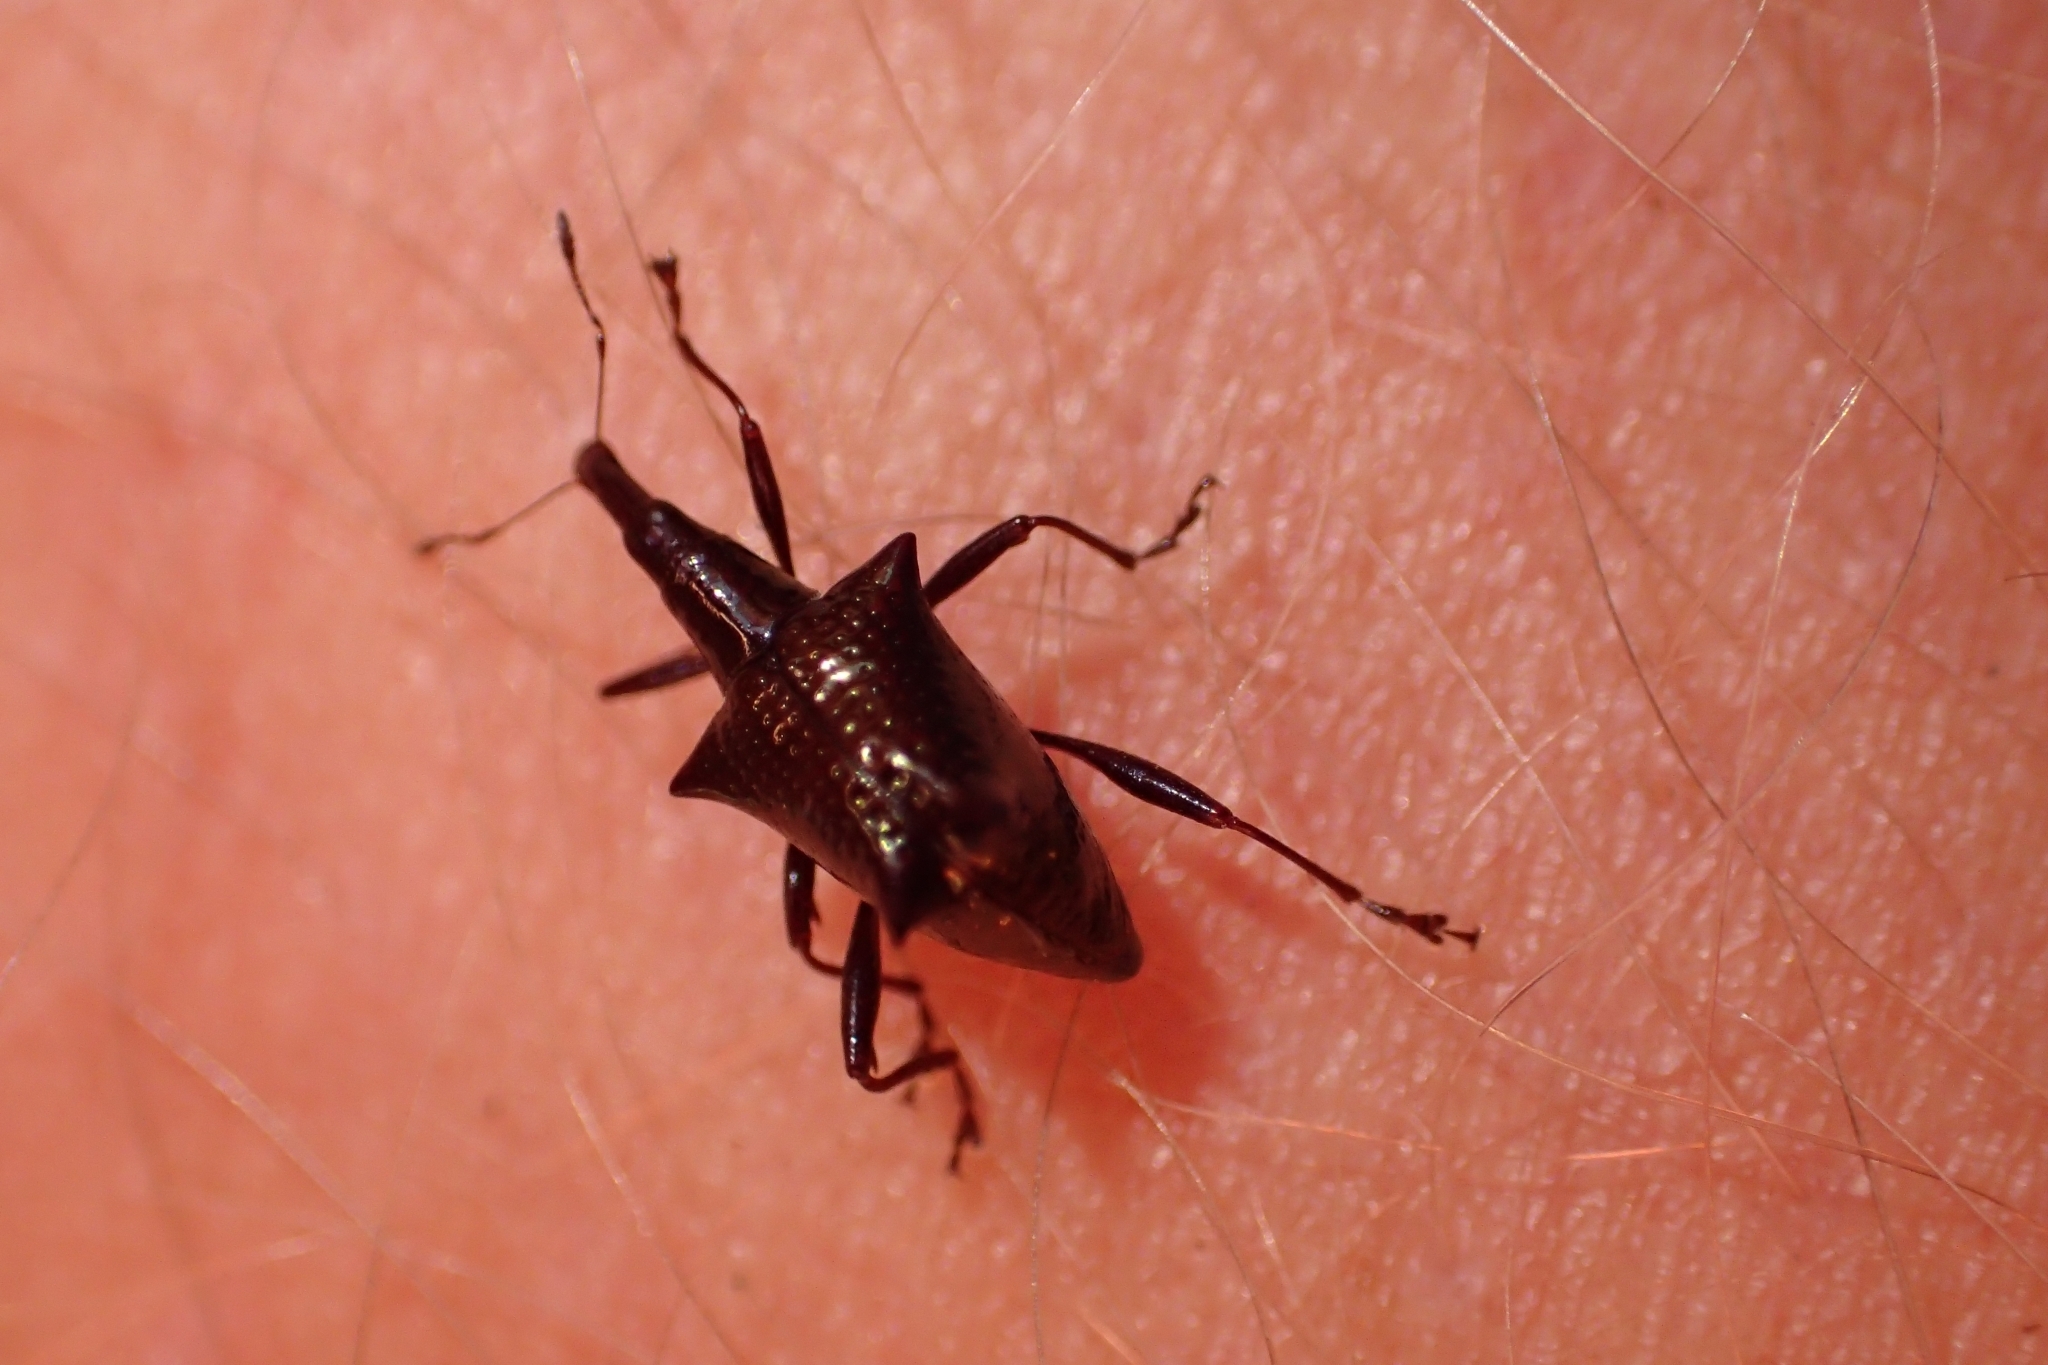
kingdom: Animalia
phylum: Arthropoda
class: Insecta
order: Coleoptera
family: Curculionidae
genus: Scolopterus
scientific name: Scolopterus aequus
